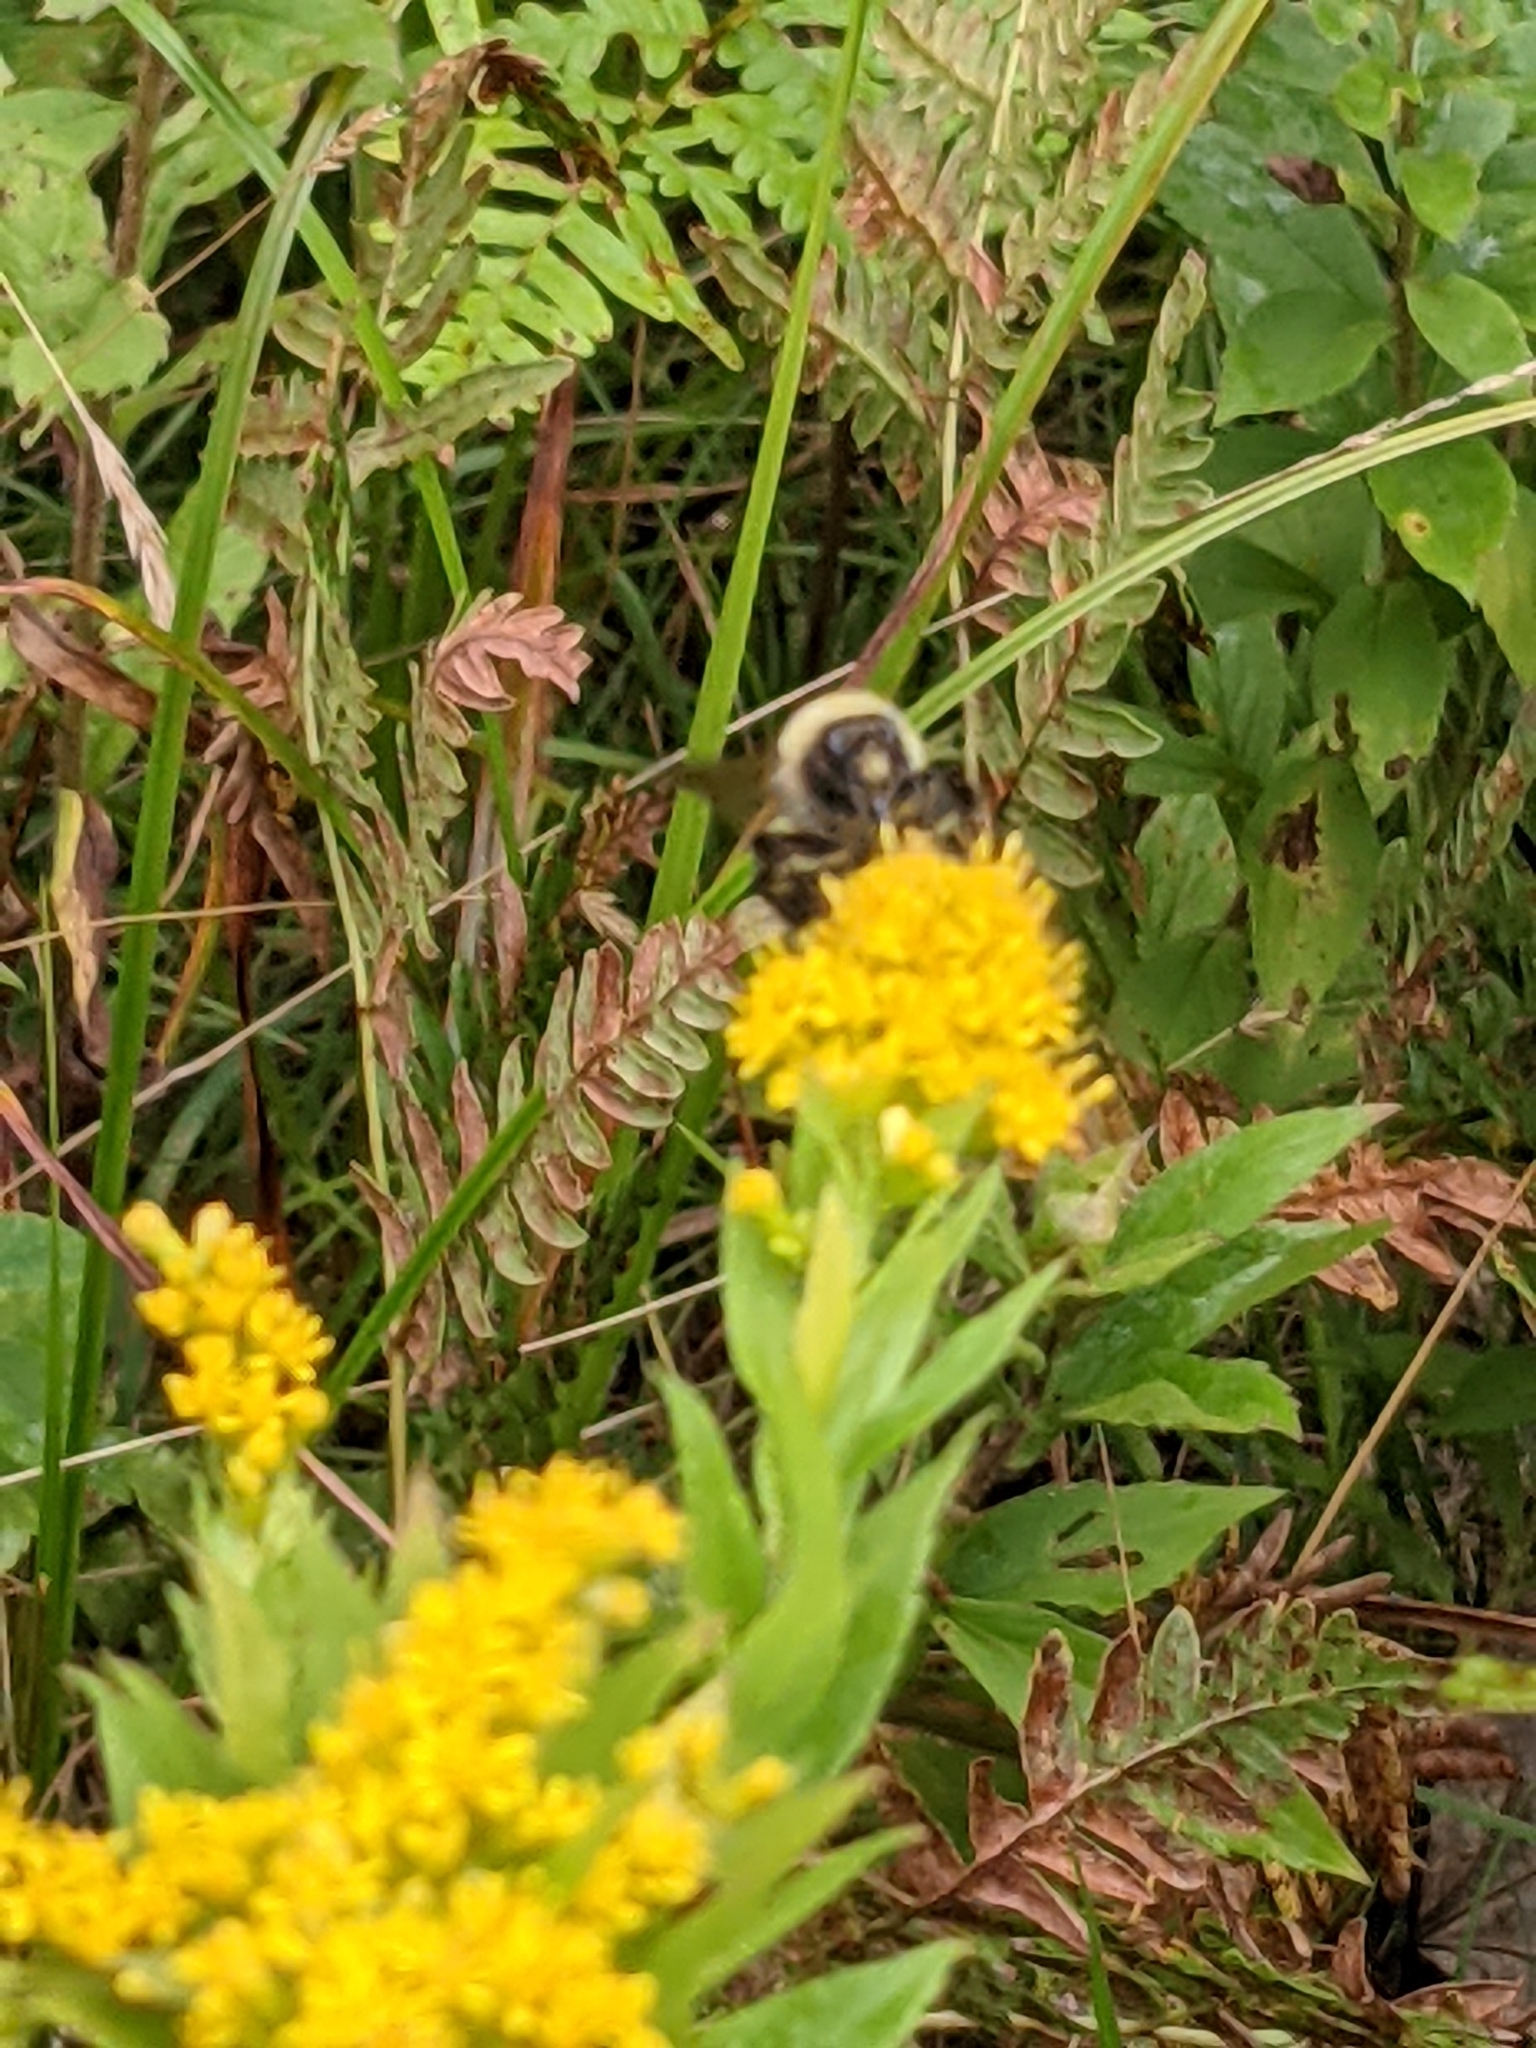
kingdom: Animalia
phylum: Arthropoda
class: Insecta
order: Hymenoptera
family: Apidae
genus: Bombus
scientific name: Bombus borealis
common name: Northern amber bumble bee
